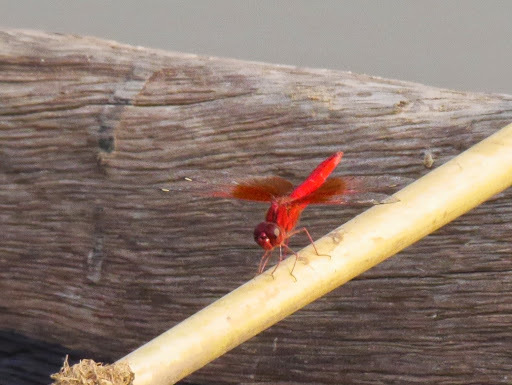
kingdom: Animalia
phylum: Arthropoda
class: Insecta
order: Odonata
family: Libellulidae
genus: Brachythemis
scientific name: Brachythemis lacustris
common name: Red groundling
